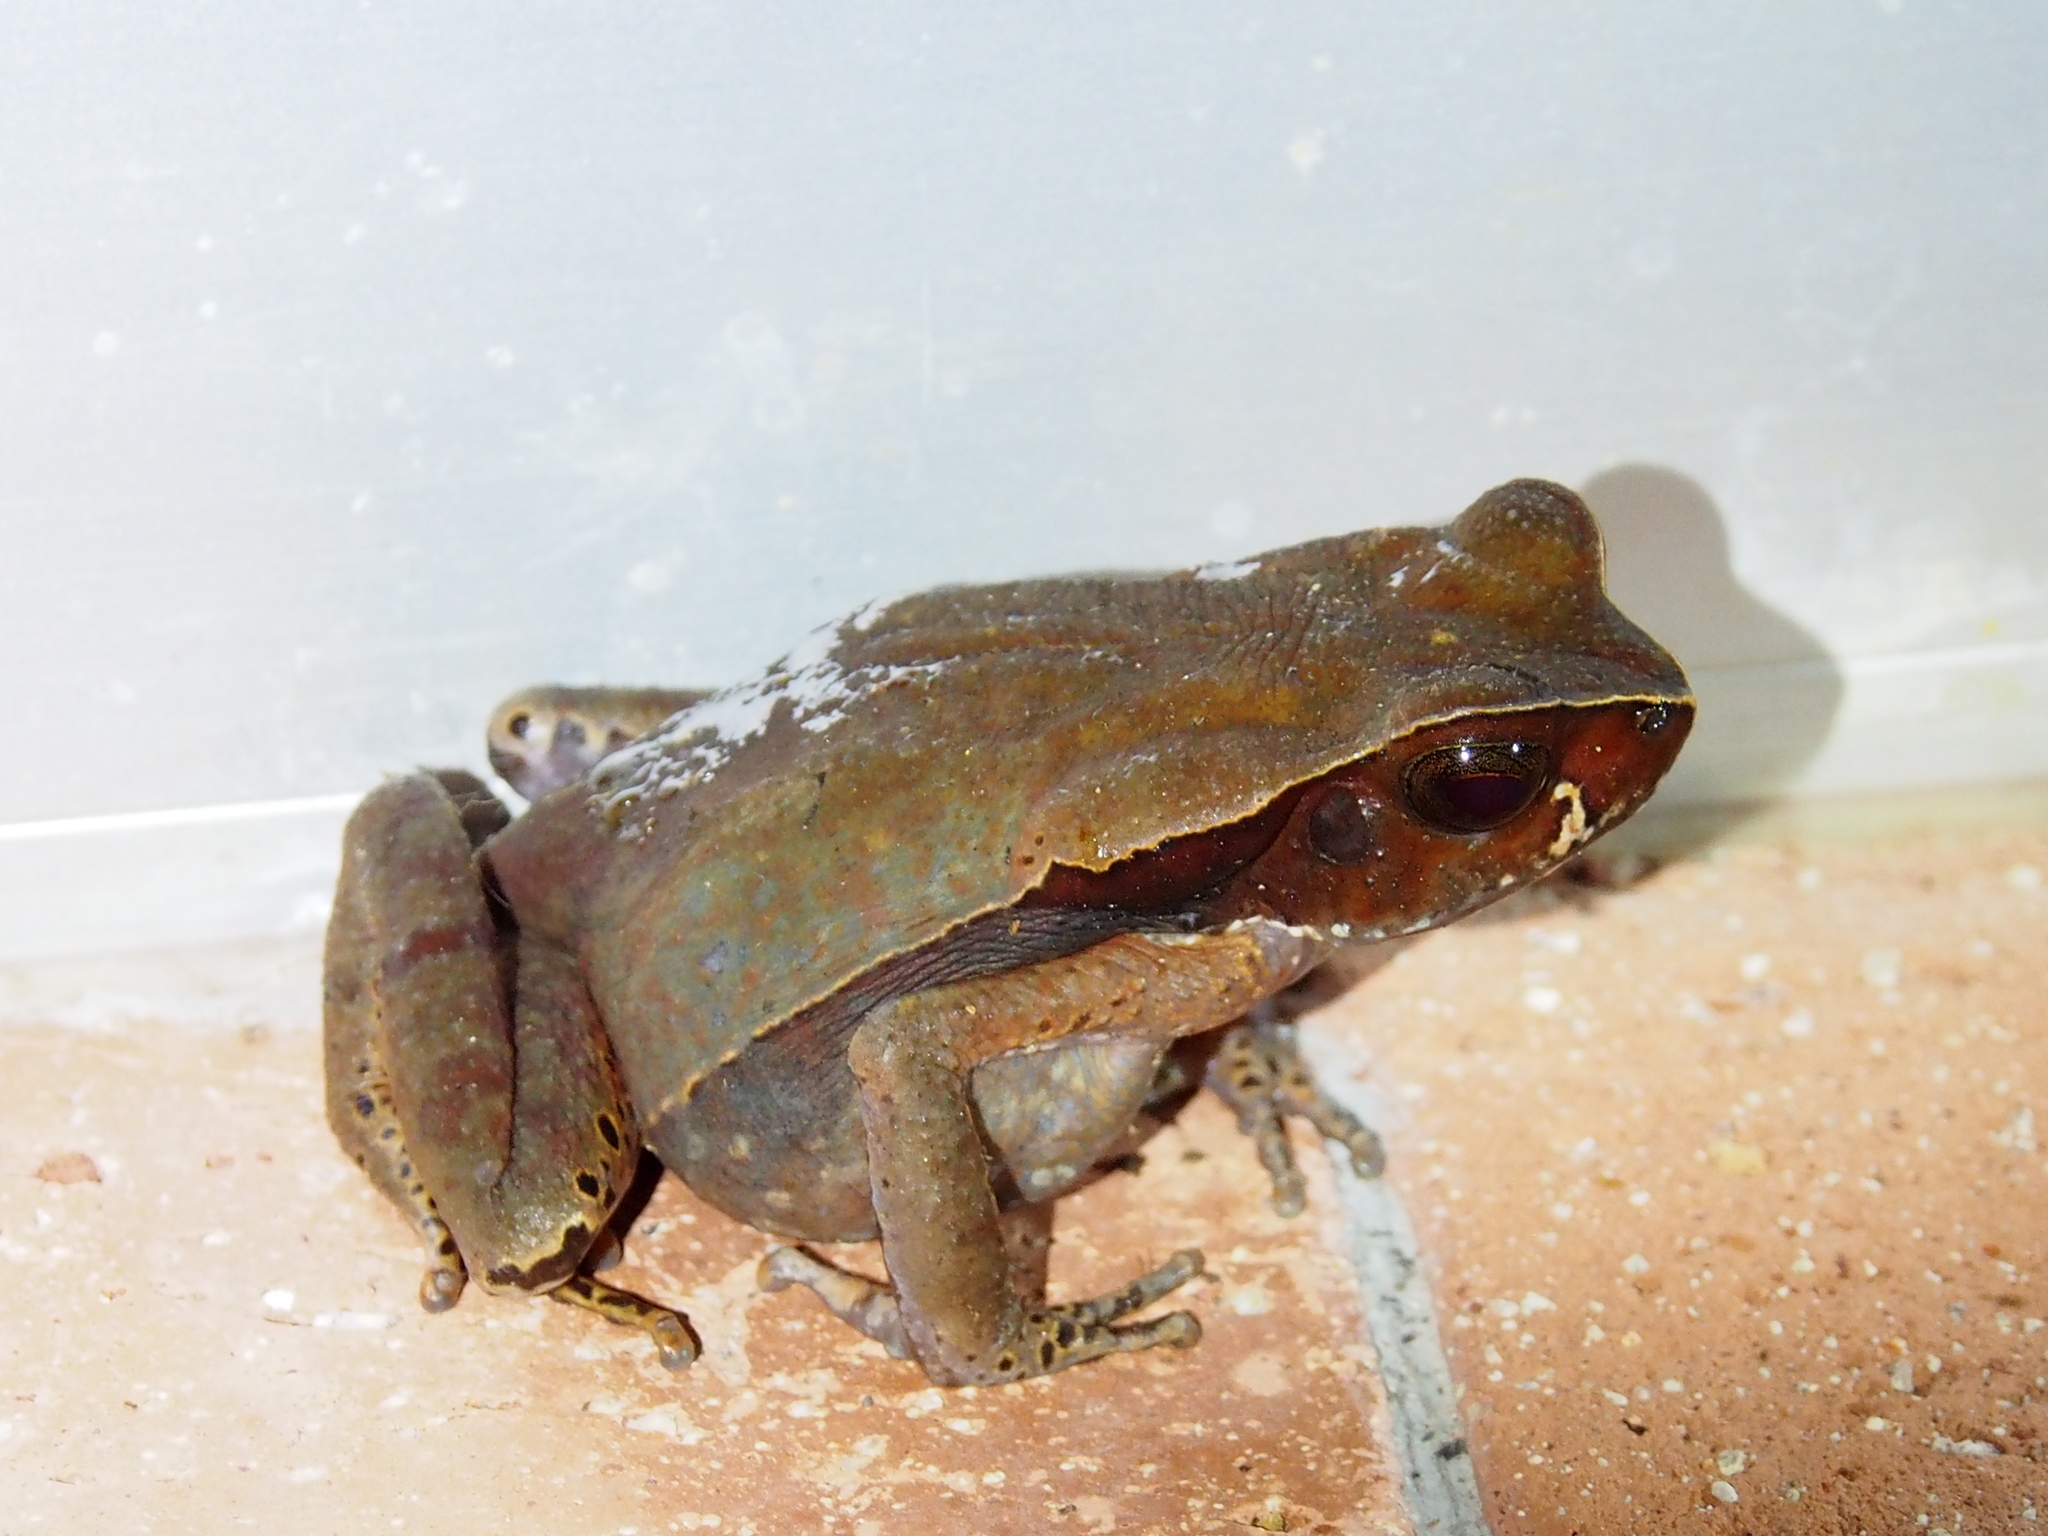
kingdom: Animalia
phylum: Chordata
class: Amphibia
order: Anura
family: Bufonidae
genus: Rhaebo
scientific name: Rhaebo haematiticus
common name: Truando toad
